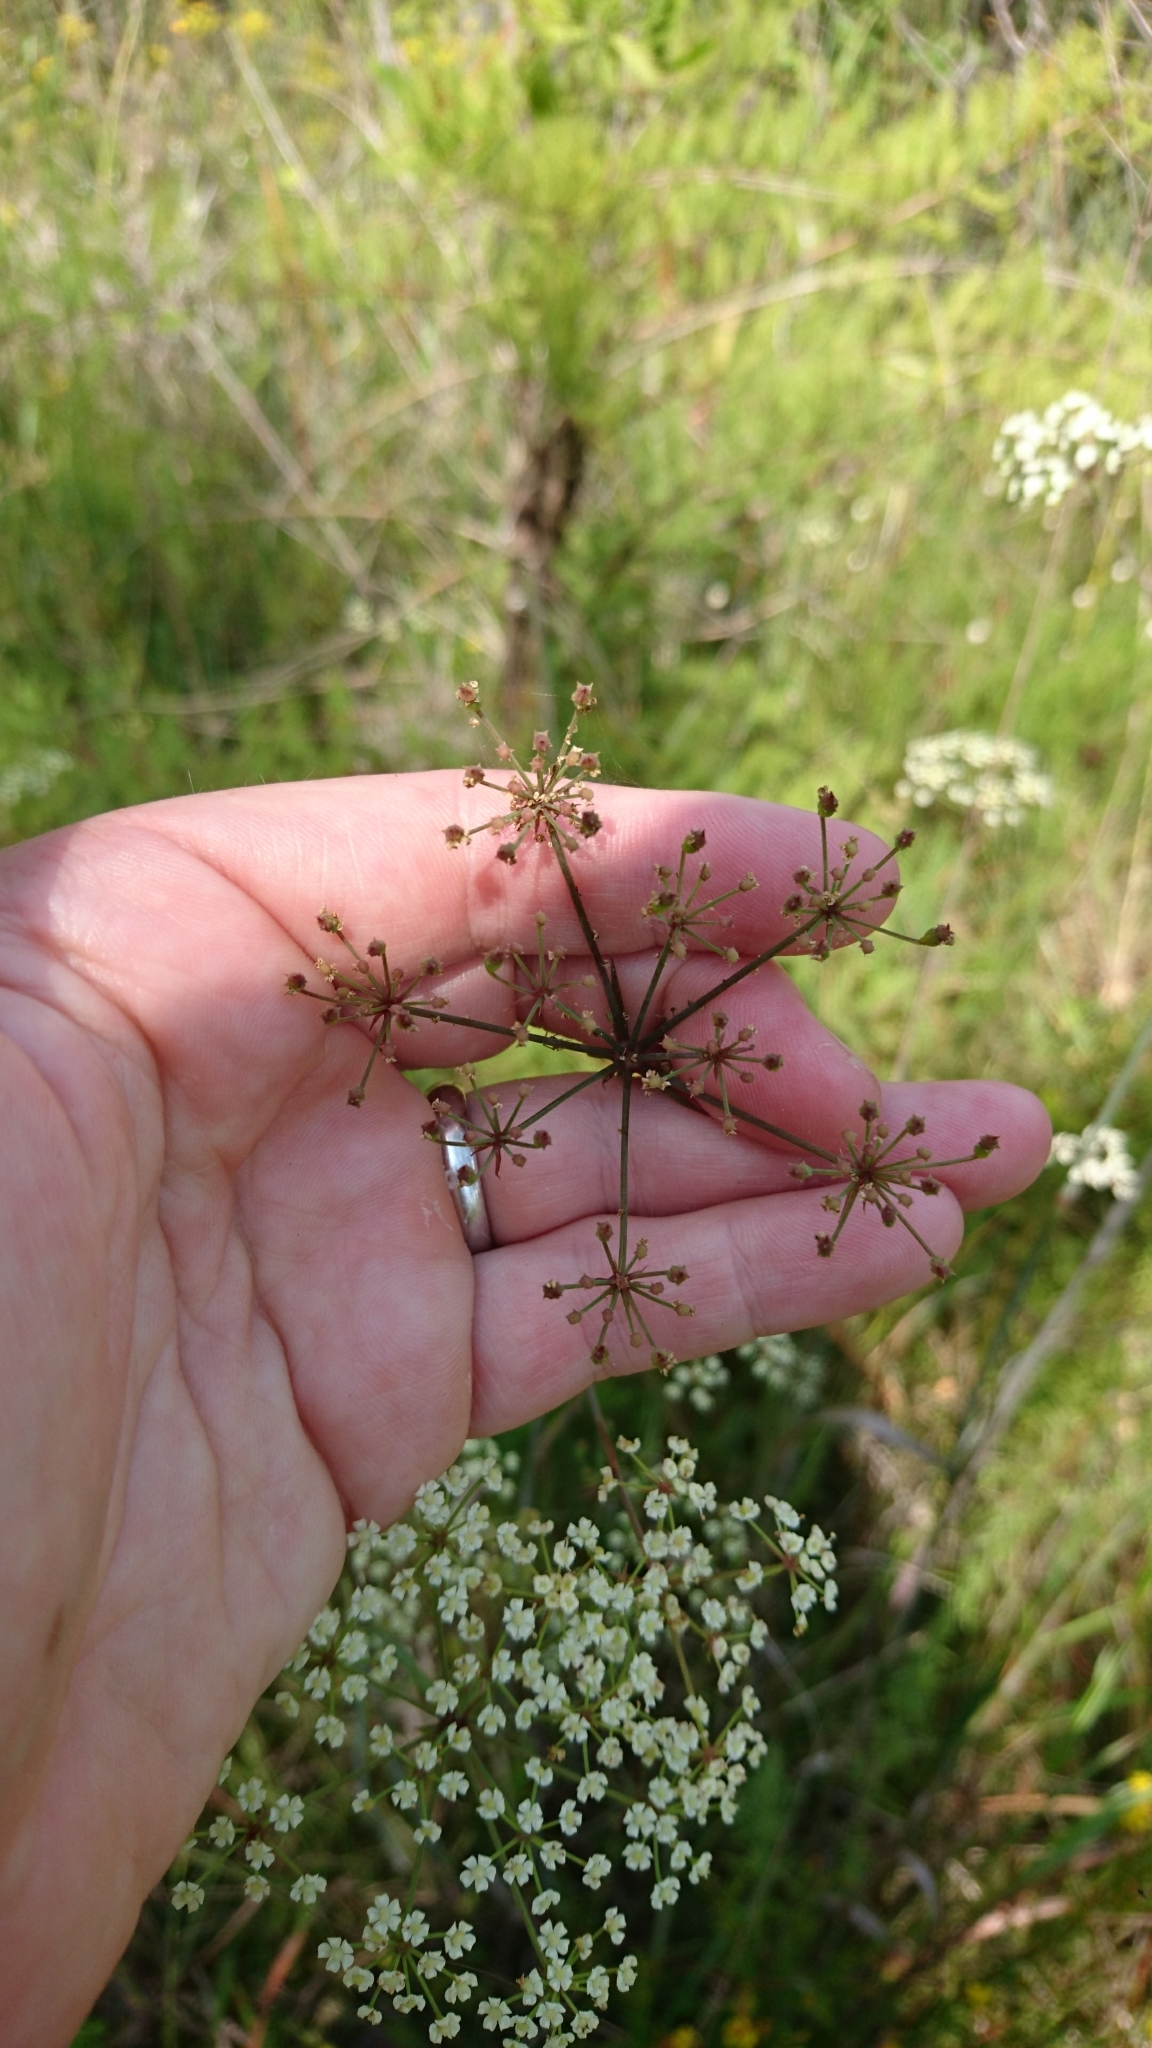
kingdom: Plantae
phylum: Tracheophyta
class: Magnoliopsida
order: Apiales
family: Apiaceae
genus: Tiedemannia
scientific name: Tiedemannia filiformis
